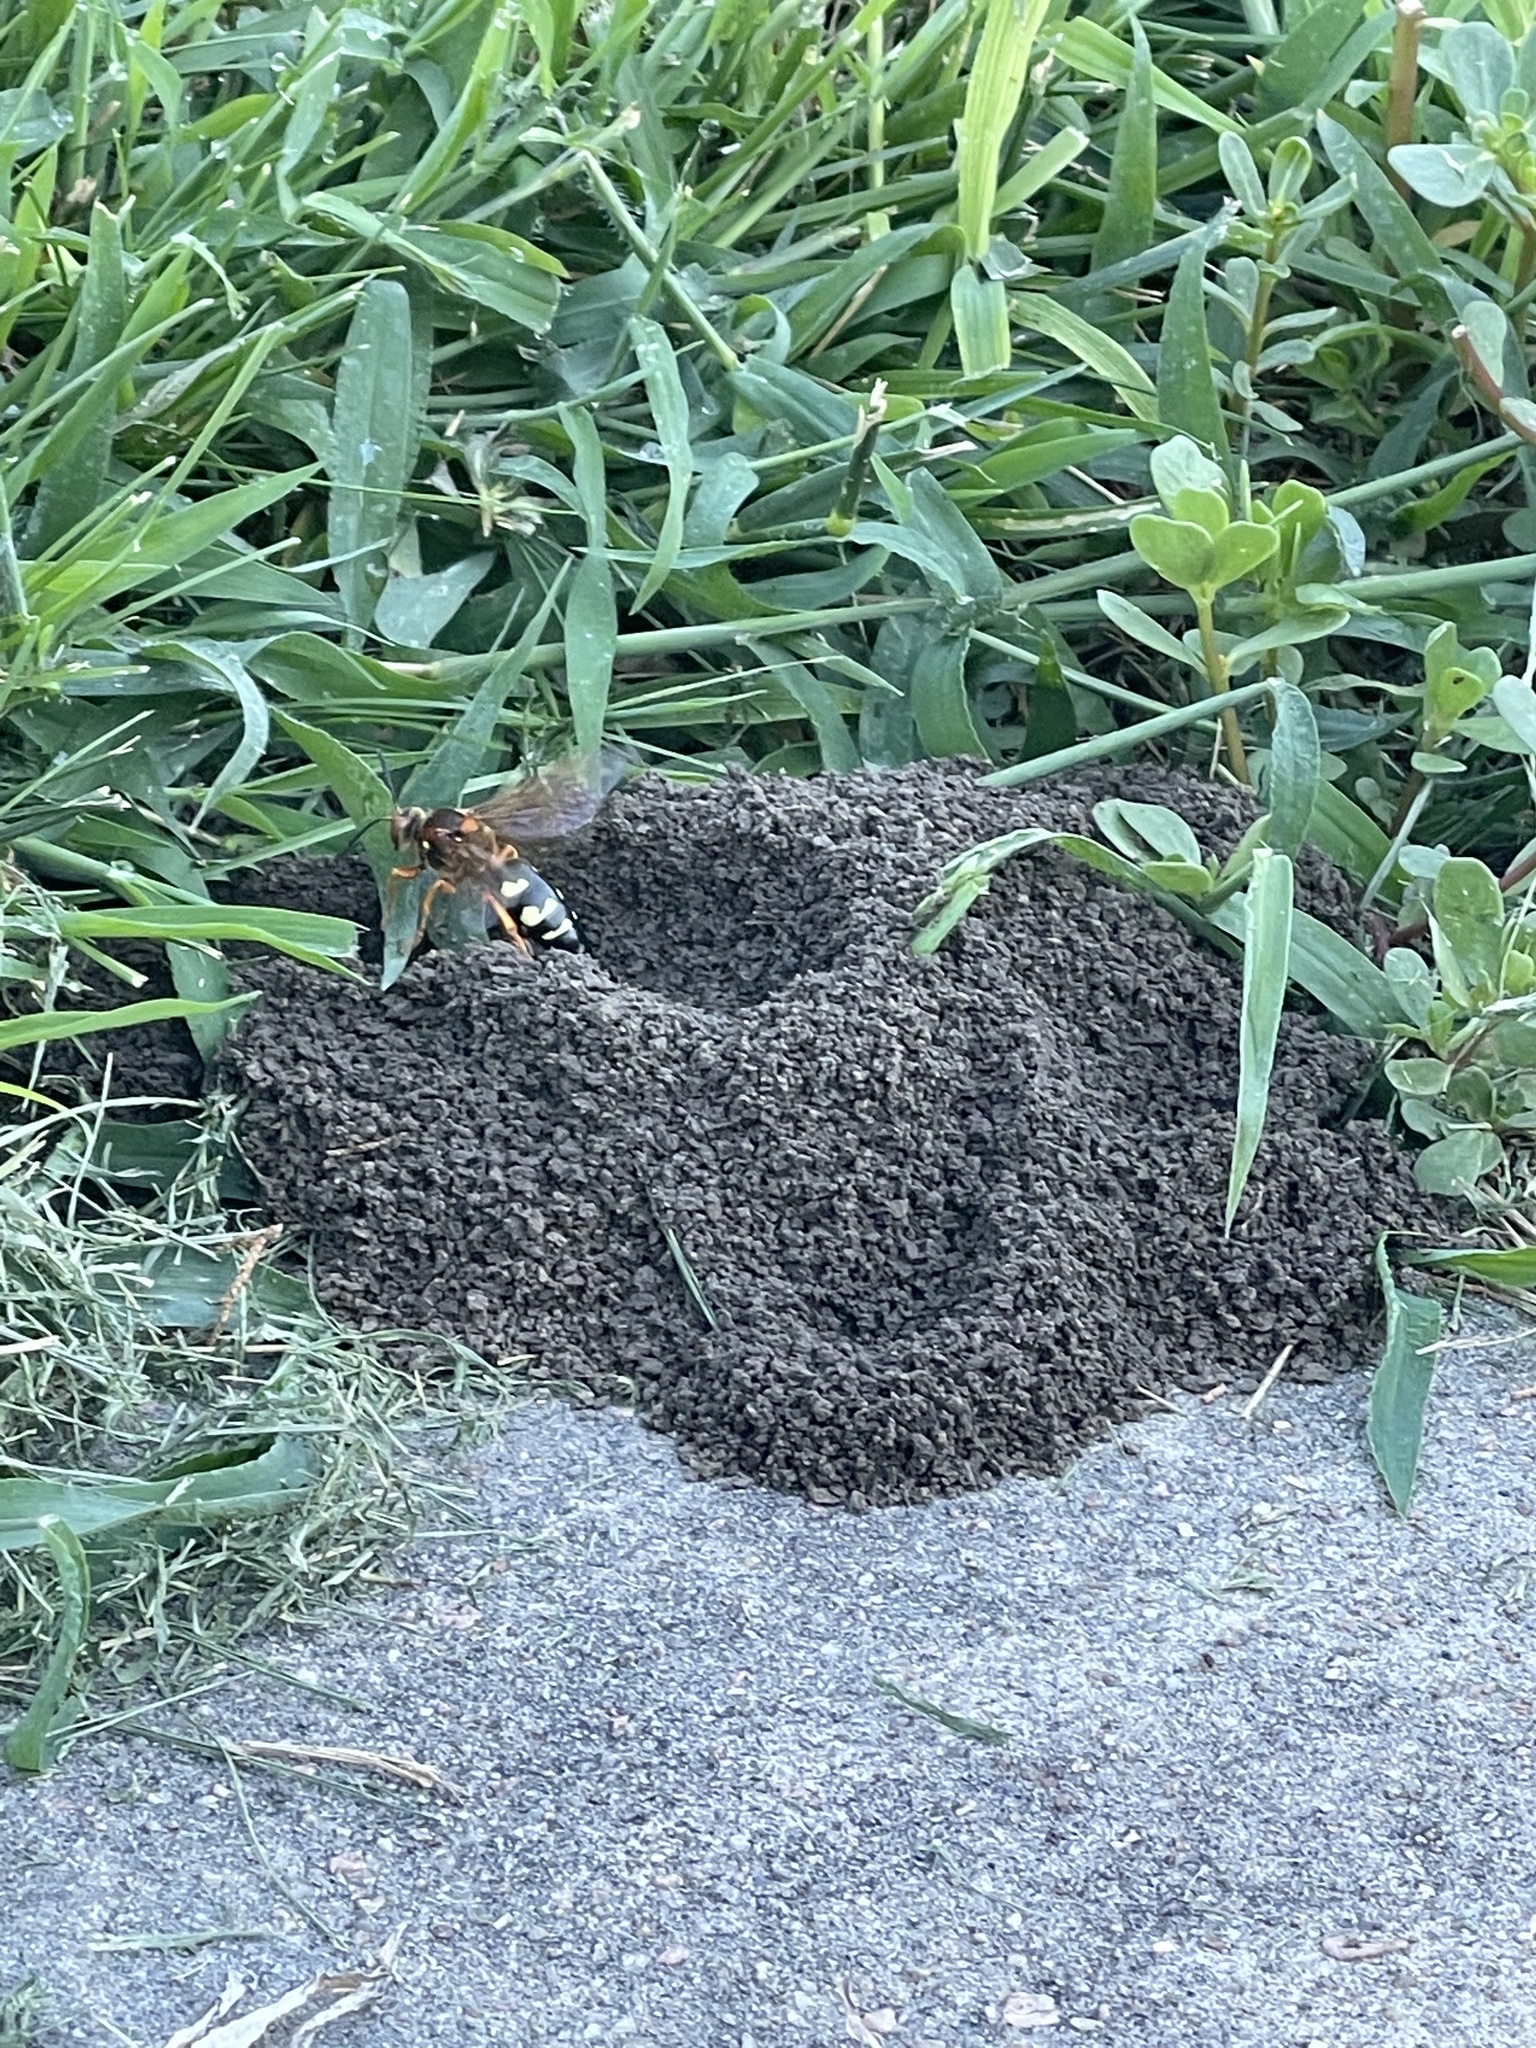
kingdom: Animalia
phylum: Arthropoda
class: Insecta
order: Hymenoptera
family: Crabronidae
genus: Sphecius
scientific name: Sphecius speciosus
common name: Cicada killer
